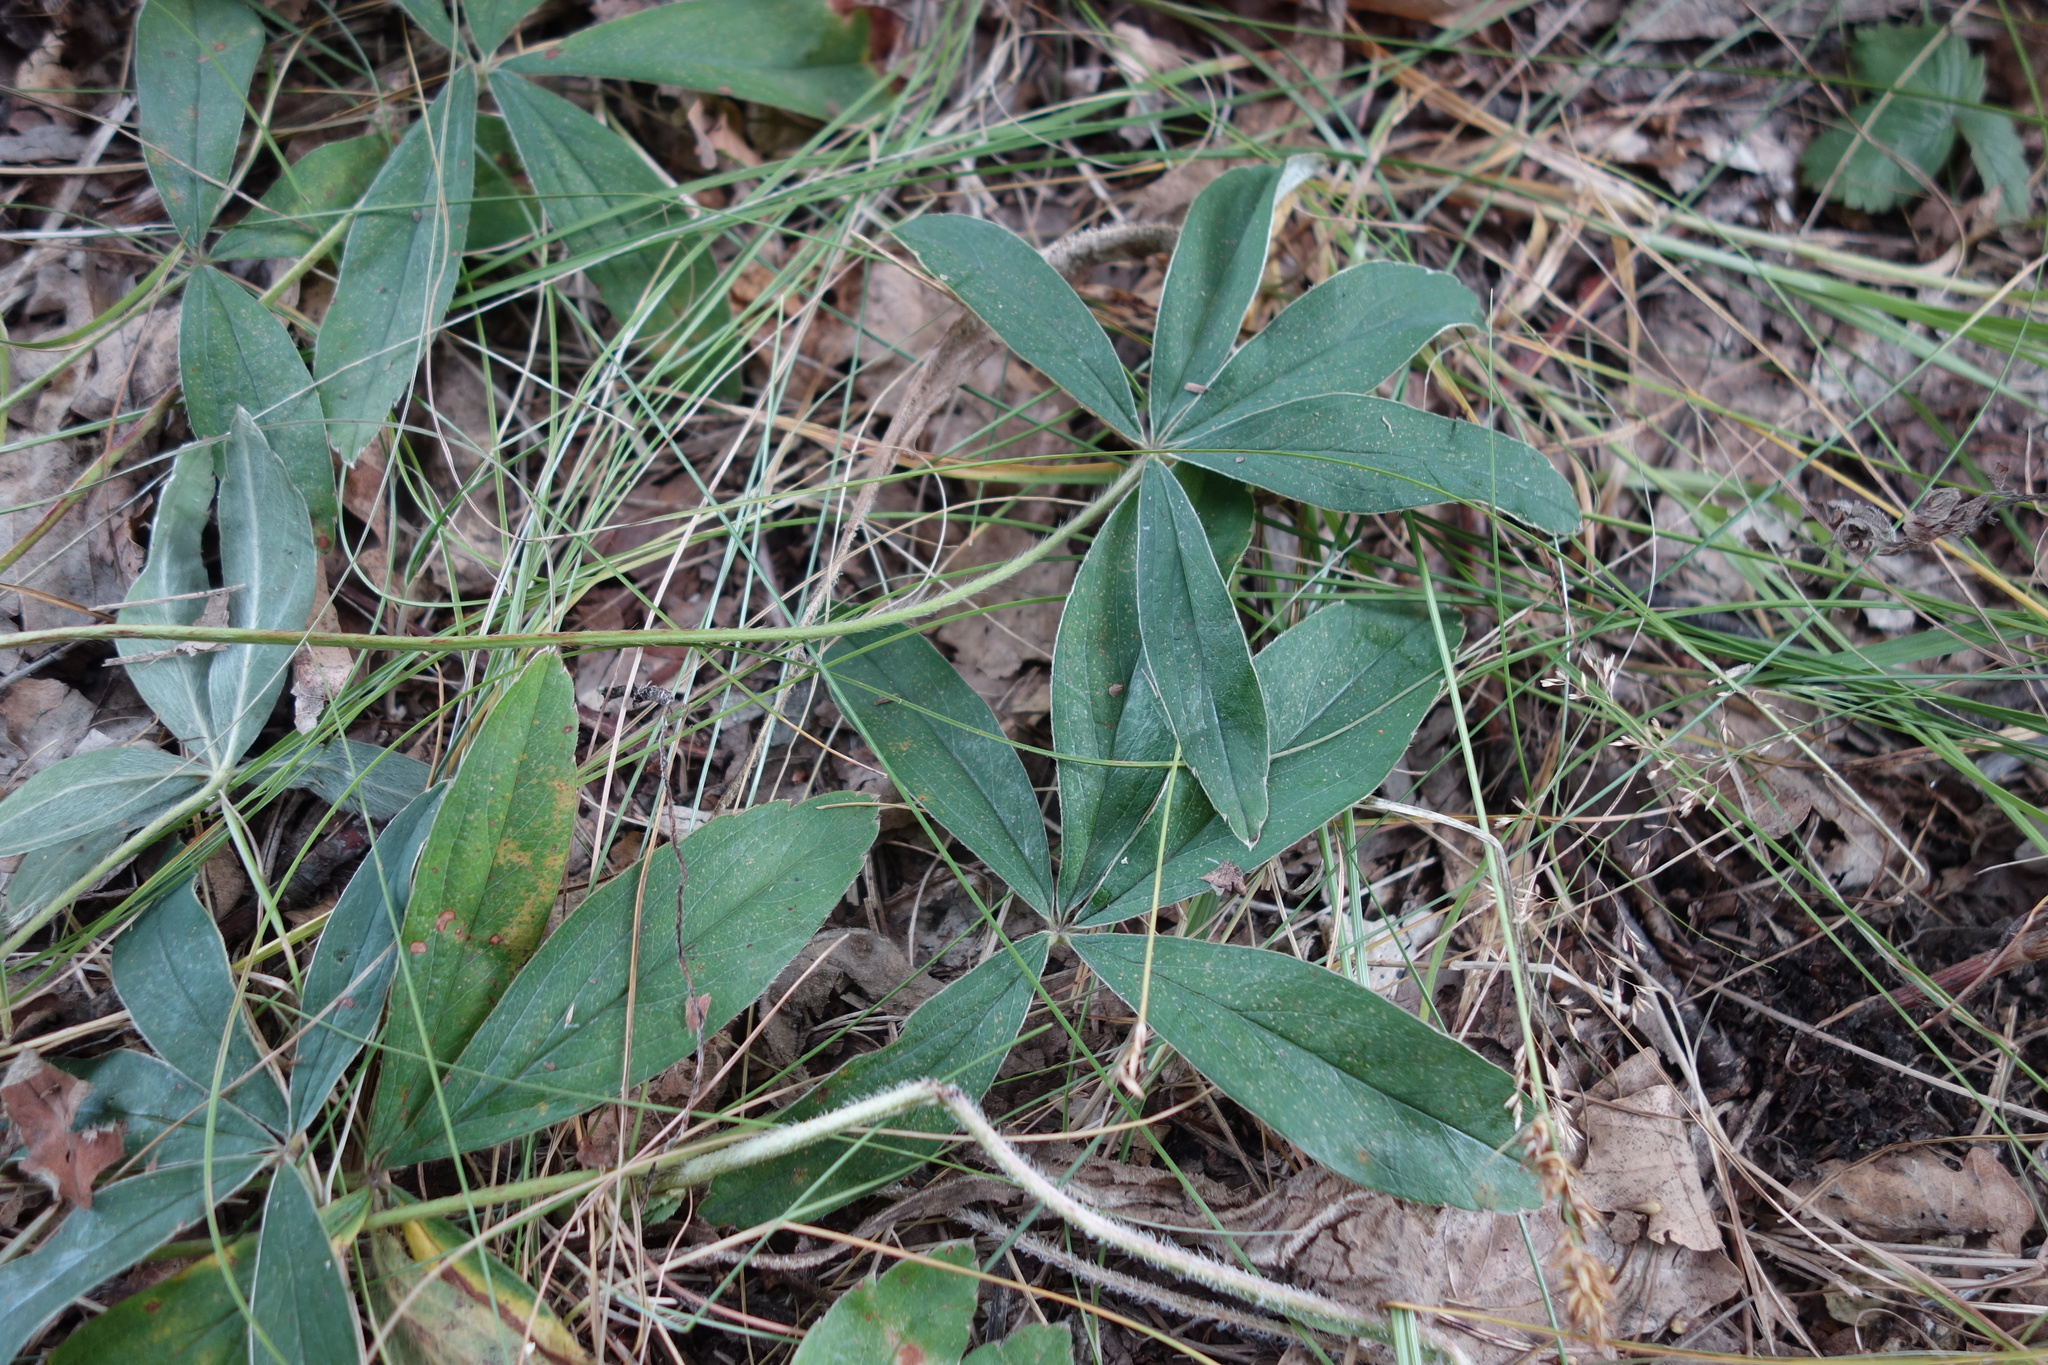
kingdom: Plantae
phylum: Tracheophyta
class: Magnoliopsida
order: Rosales
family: Rosaceae
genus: Potentilla
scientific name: Potentilla alba
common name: White cinquefoil
